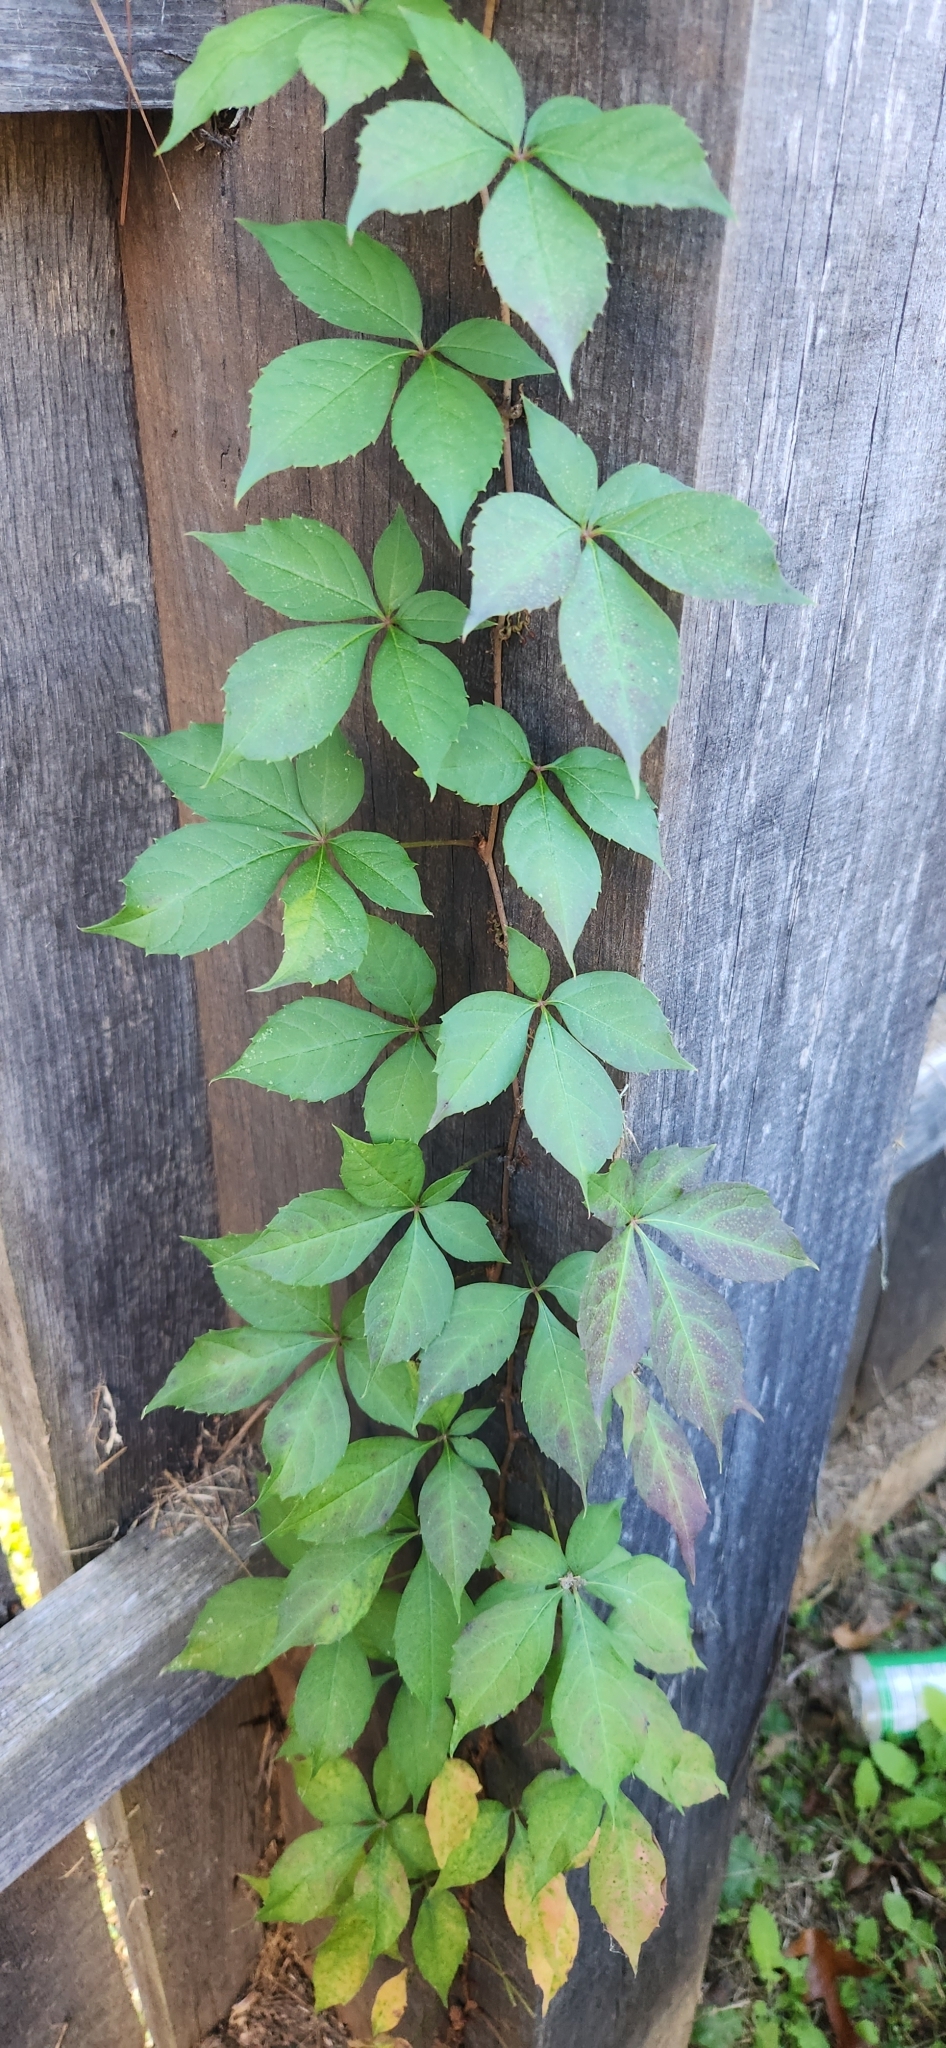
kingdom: Plantae
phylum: Tracheophyta
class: Magnoliopsida
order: Vitales
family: Vitaceae
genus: Parthenocissus
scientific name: Parthenocissus quinquefolia
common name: Virginia-creeper
